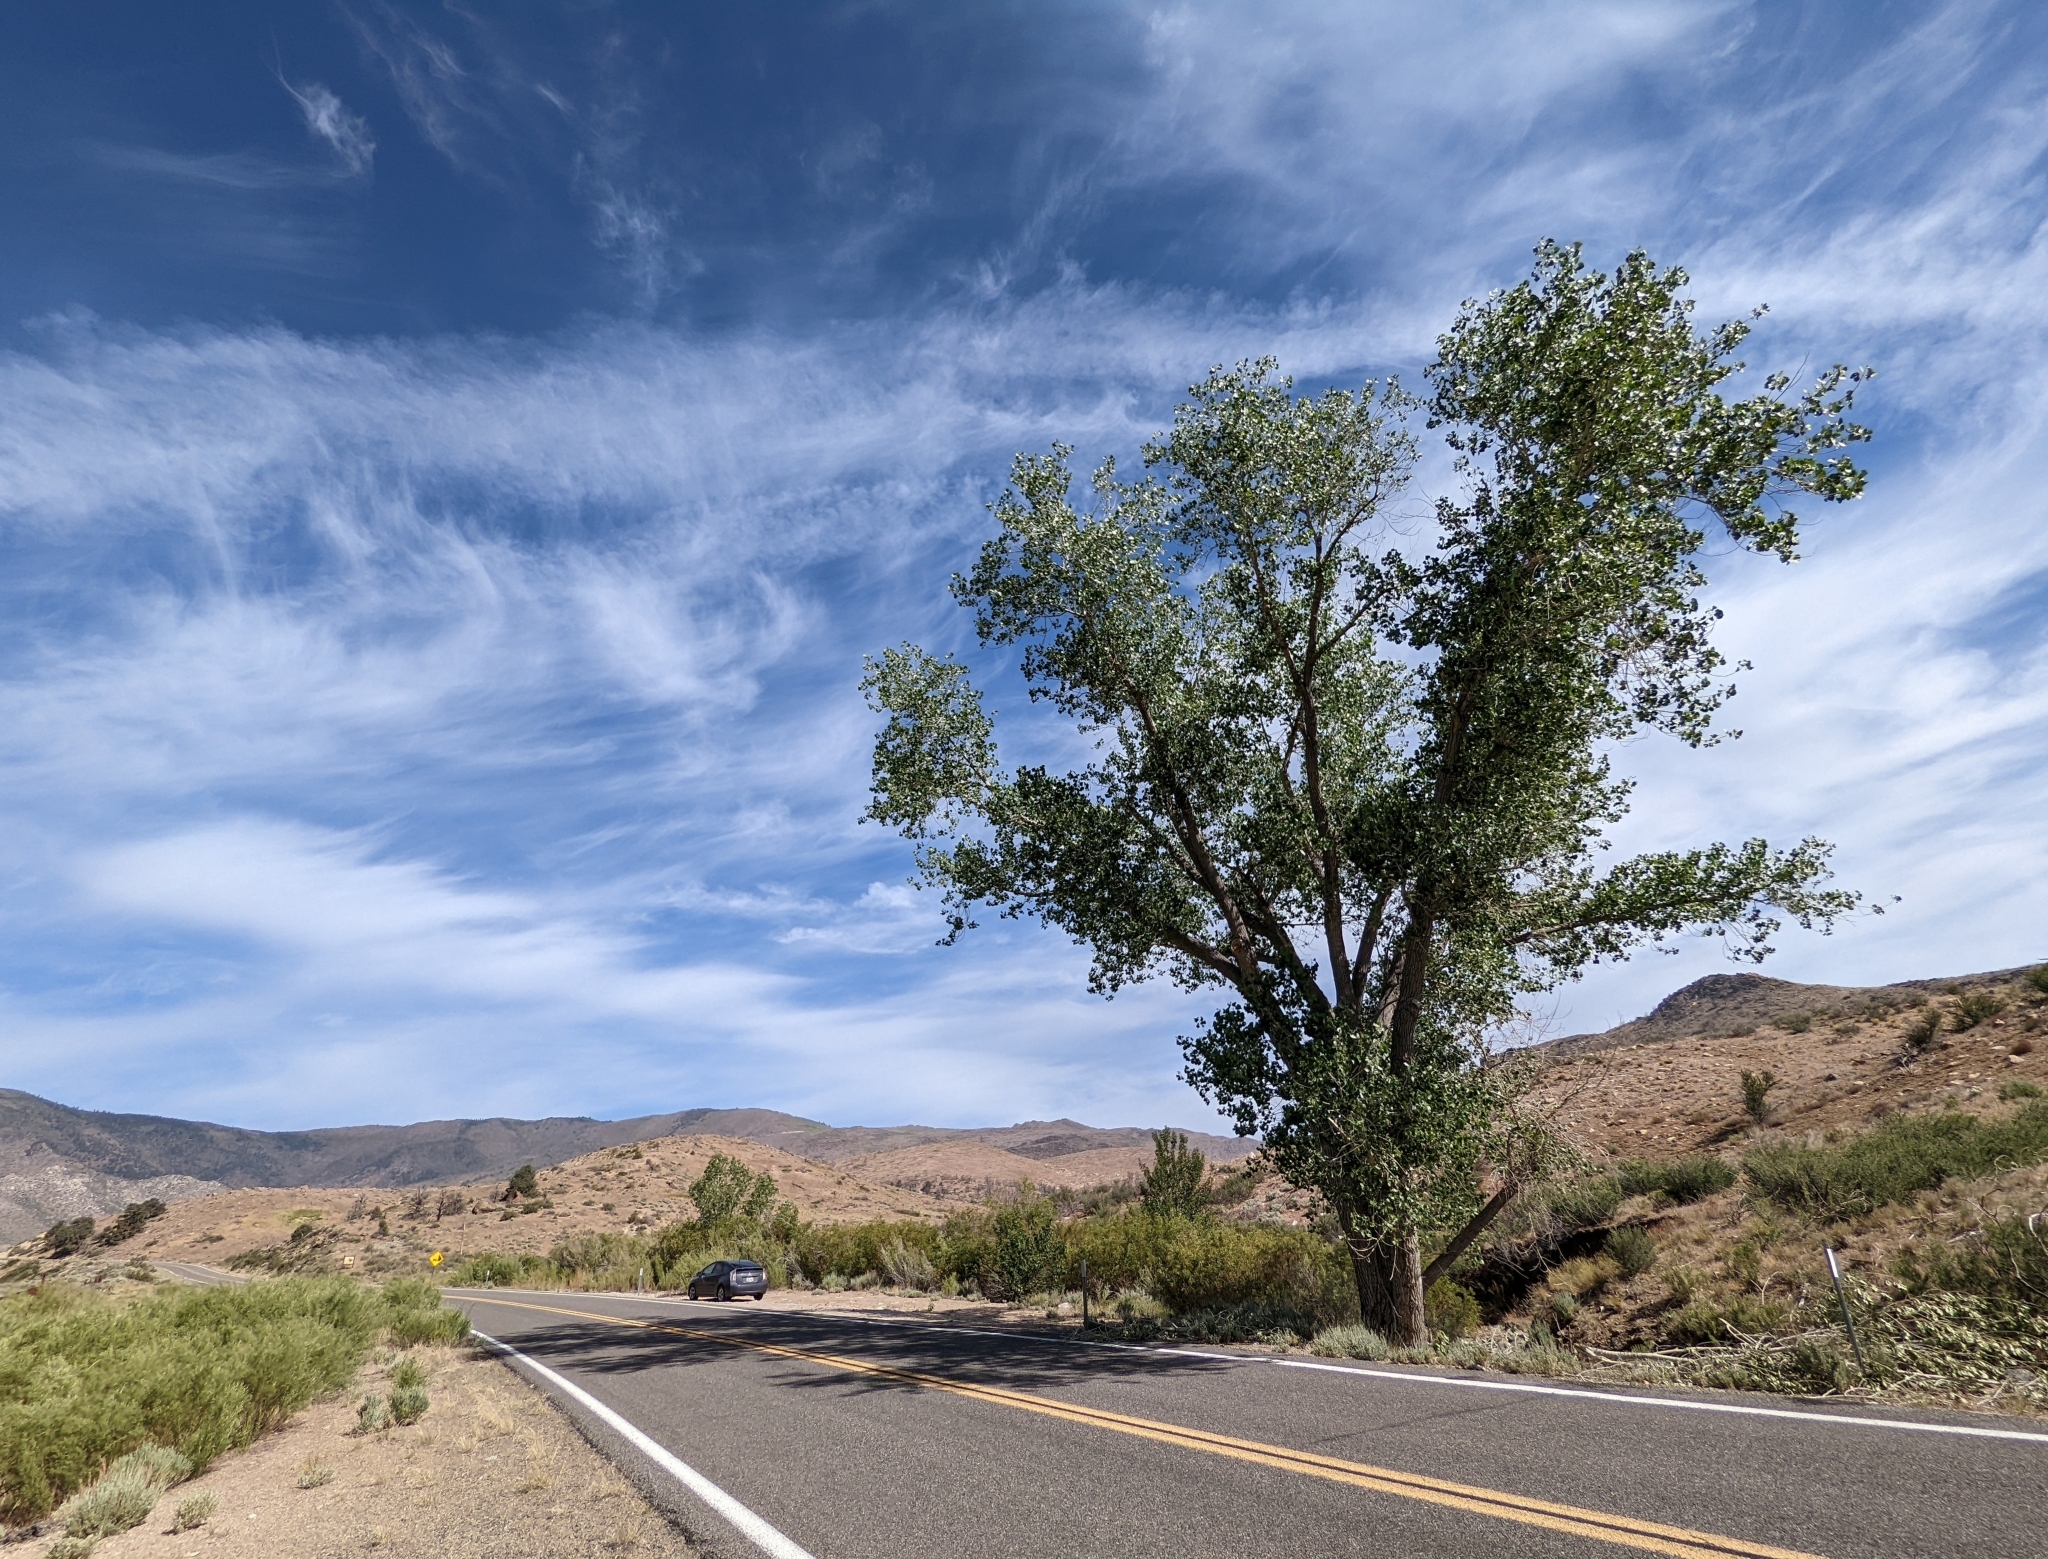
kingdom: Plantae
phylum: Tracheophyta
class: Magnoliopsida
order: Malpighiales
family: Salicaceae
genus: Populus
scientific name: Populus fremontii
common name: Fremont's cottonwood
